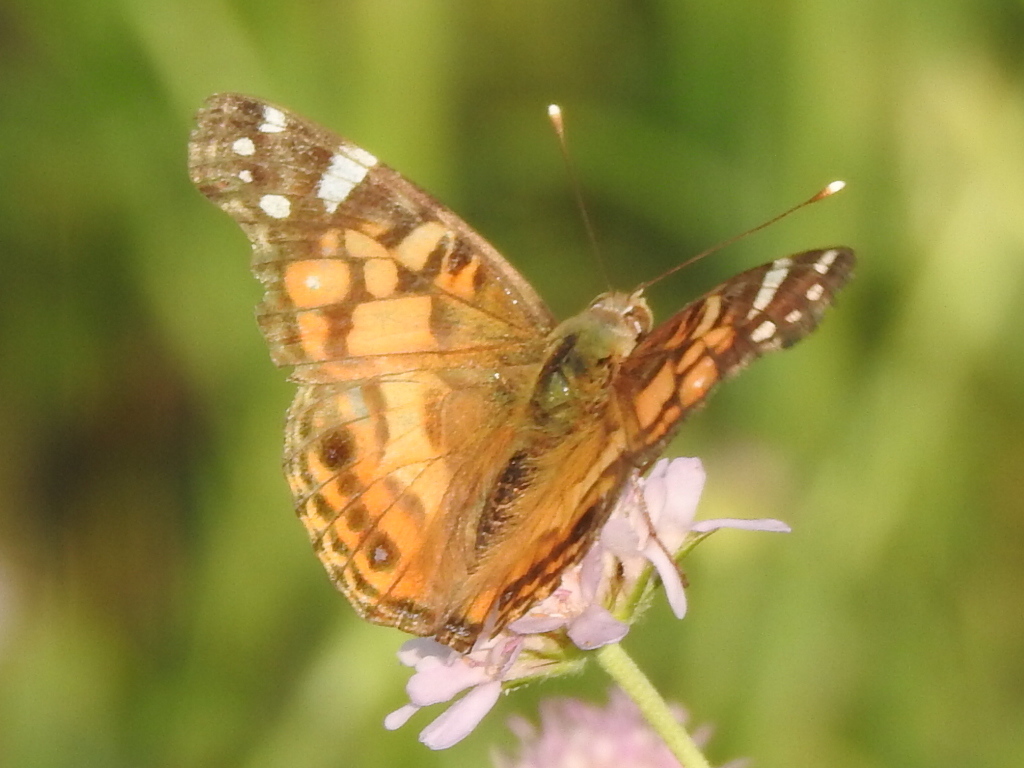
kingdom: Animalia
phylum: Arthropoda
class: Insecta
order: Lepidoptera
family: Nymphalidae
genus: Vanessa
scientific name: Vanessa virginiensis
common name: American lady
